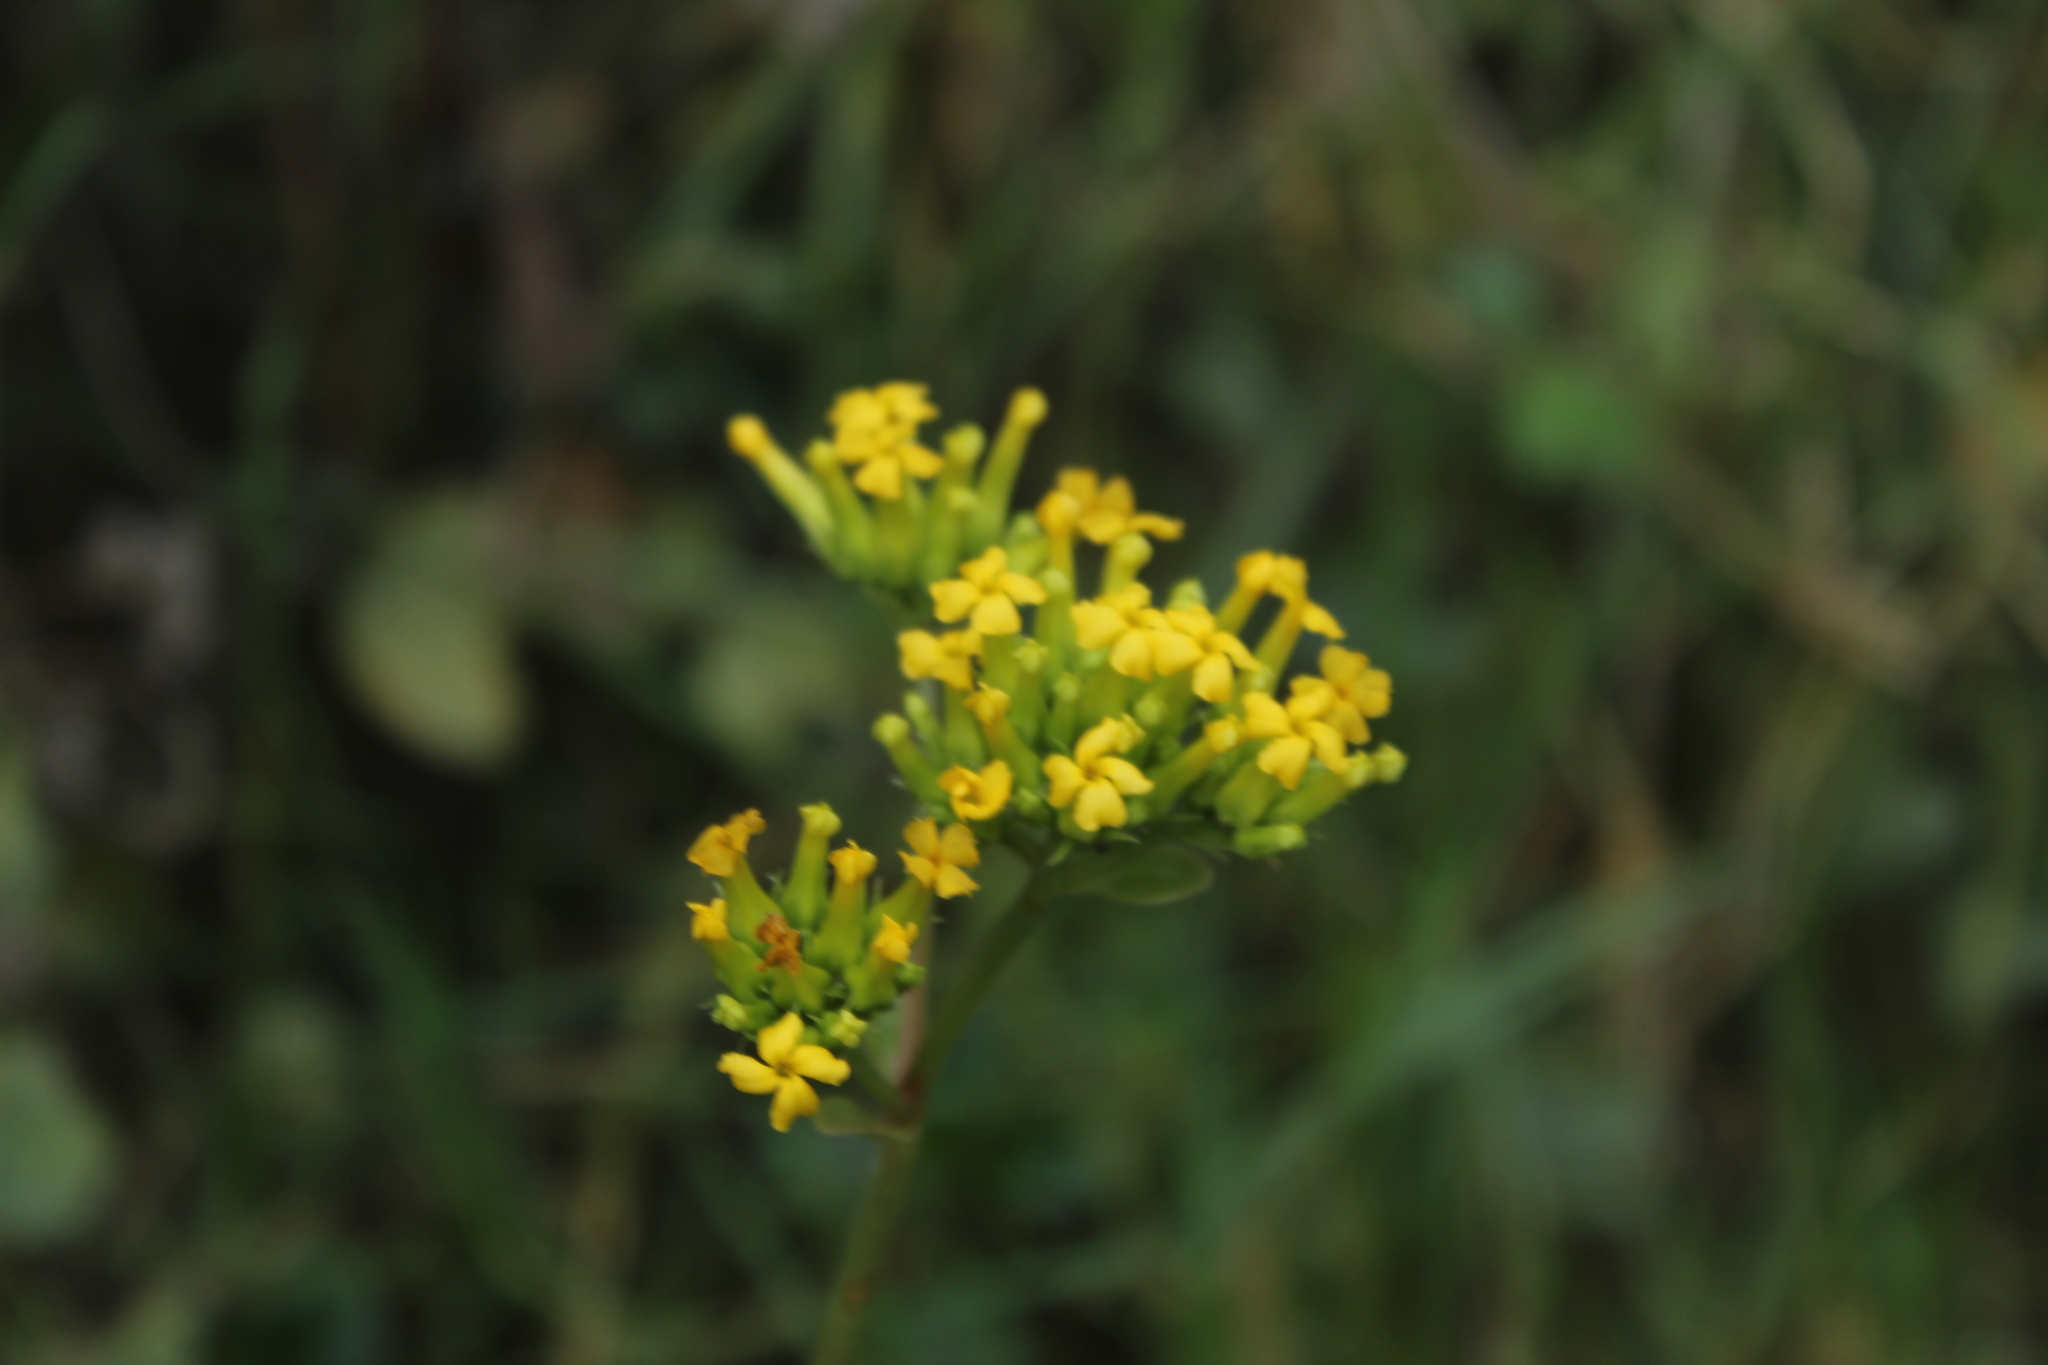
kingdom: Plantae
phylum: Tracheophyta
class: Magnoliopsida
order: Saxifragales
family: Crassulaceae
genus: Kalanchoe
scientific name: Kalanchoe densiflora
